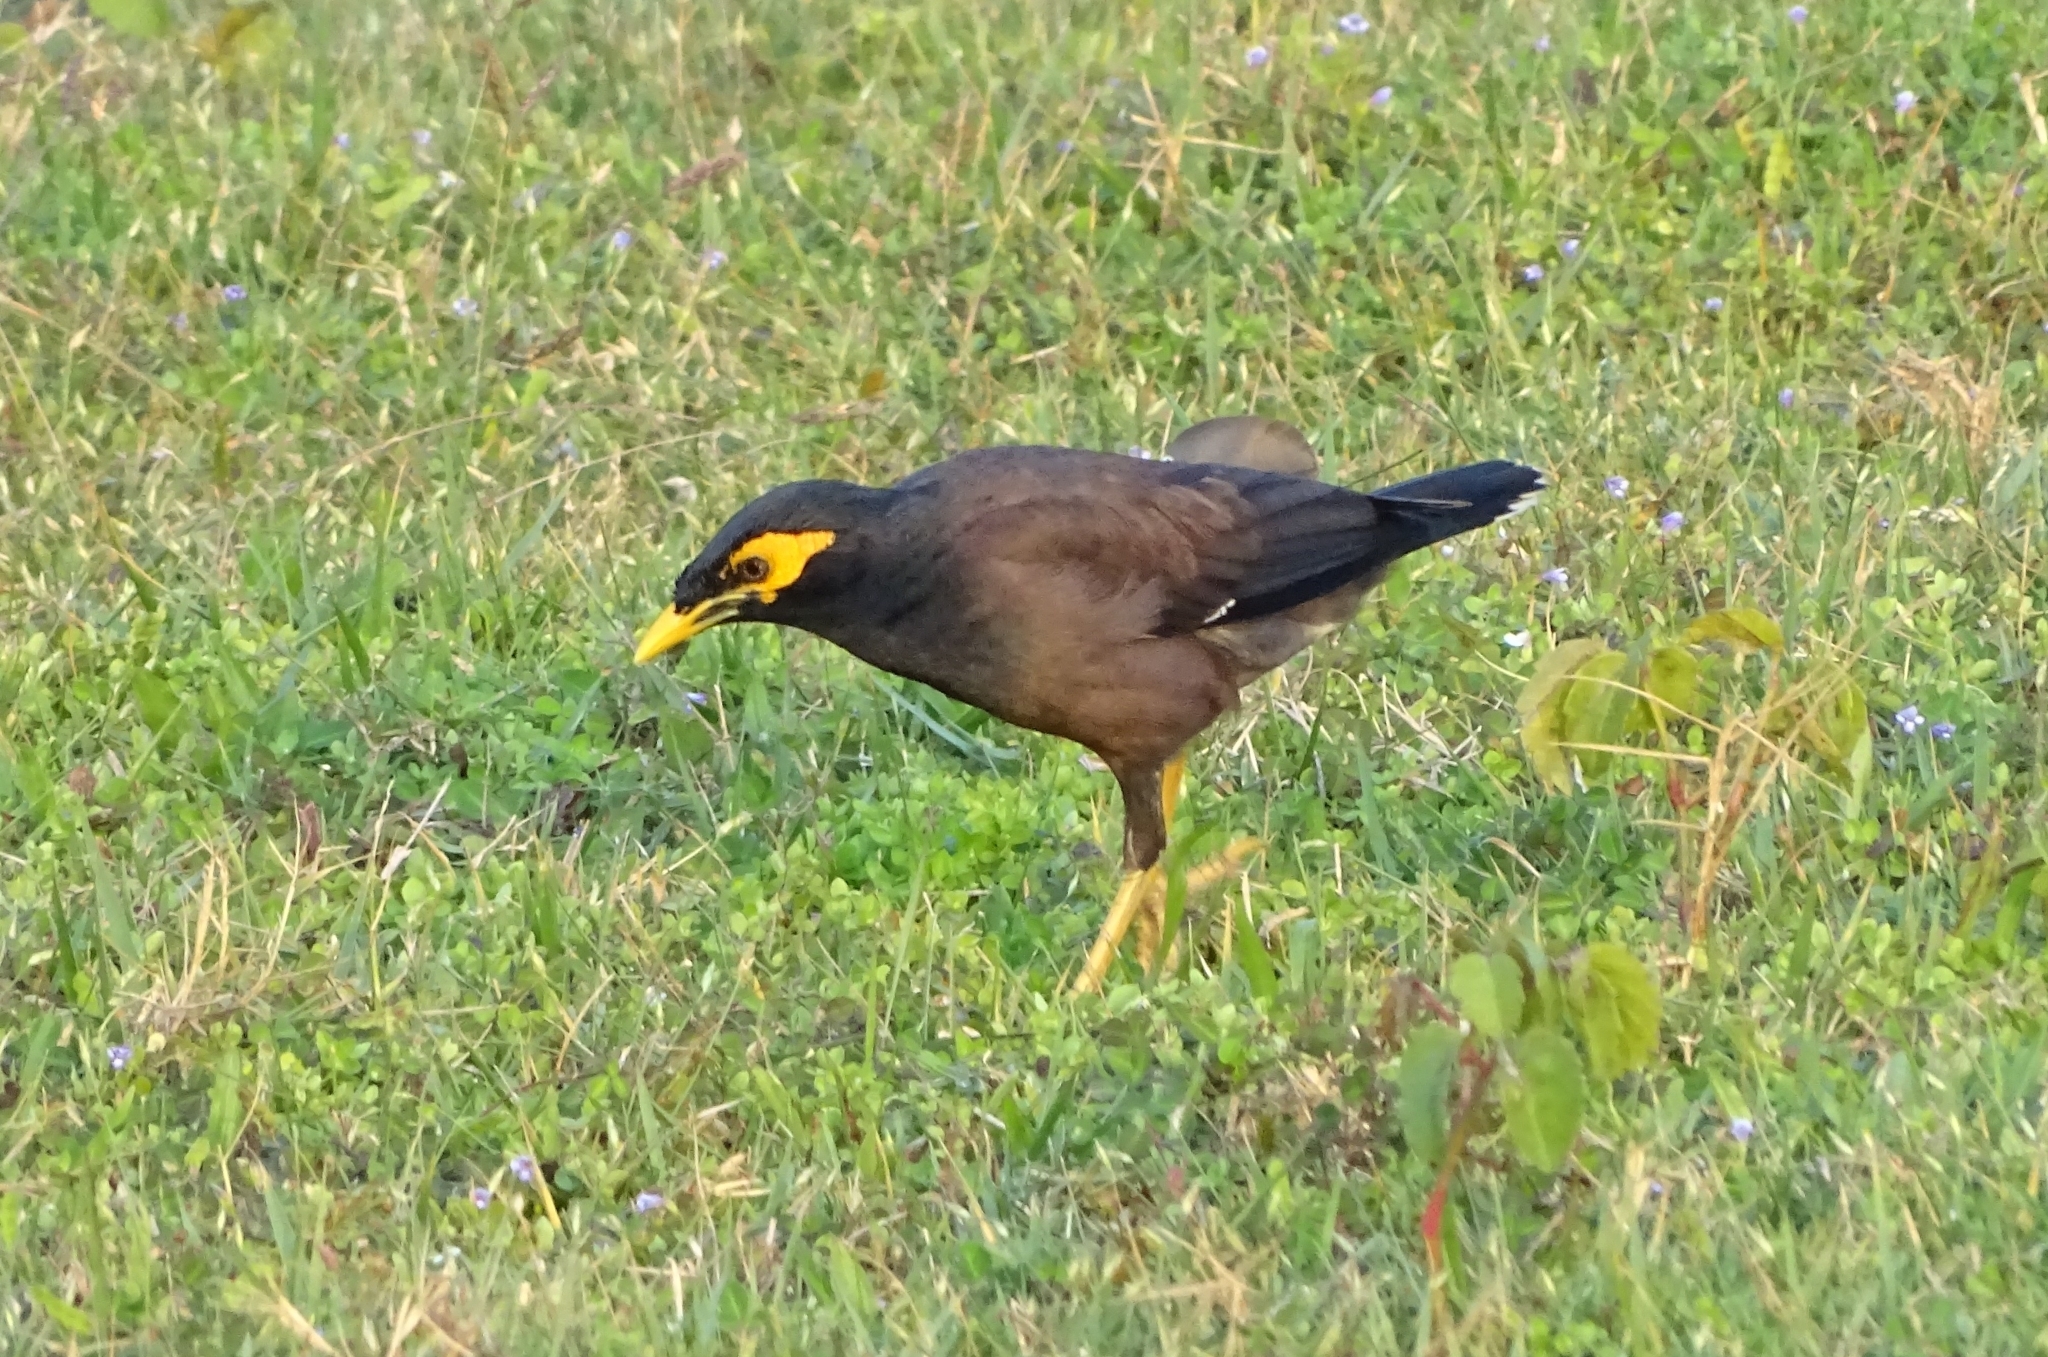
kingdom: Animalia
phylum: Chordata
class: Aves
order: Passeriformes
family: Sturnidae
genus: Acridotheres
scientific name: Acridotheres tristis
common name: Common myna
